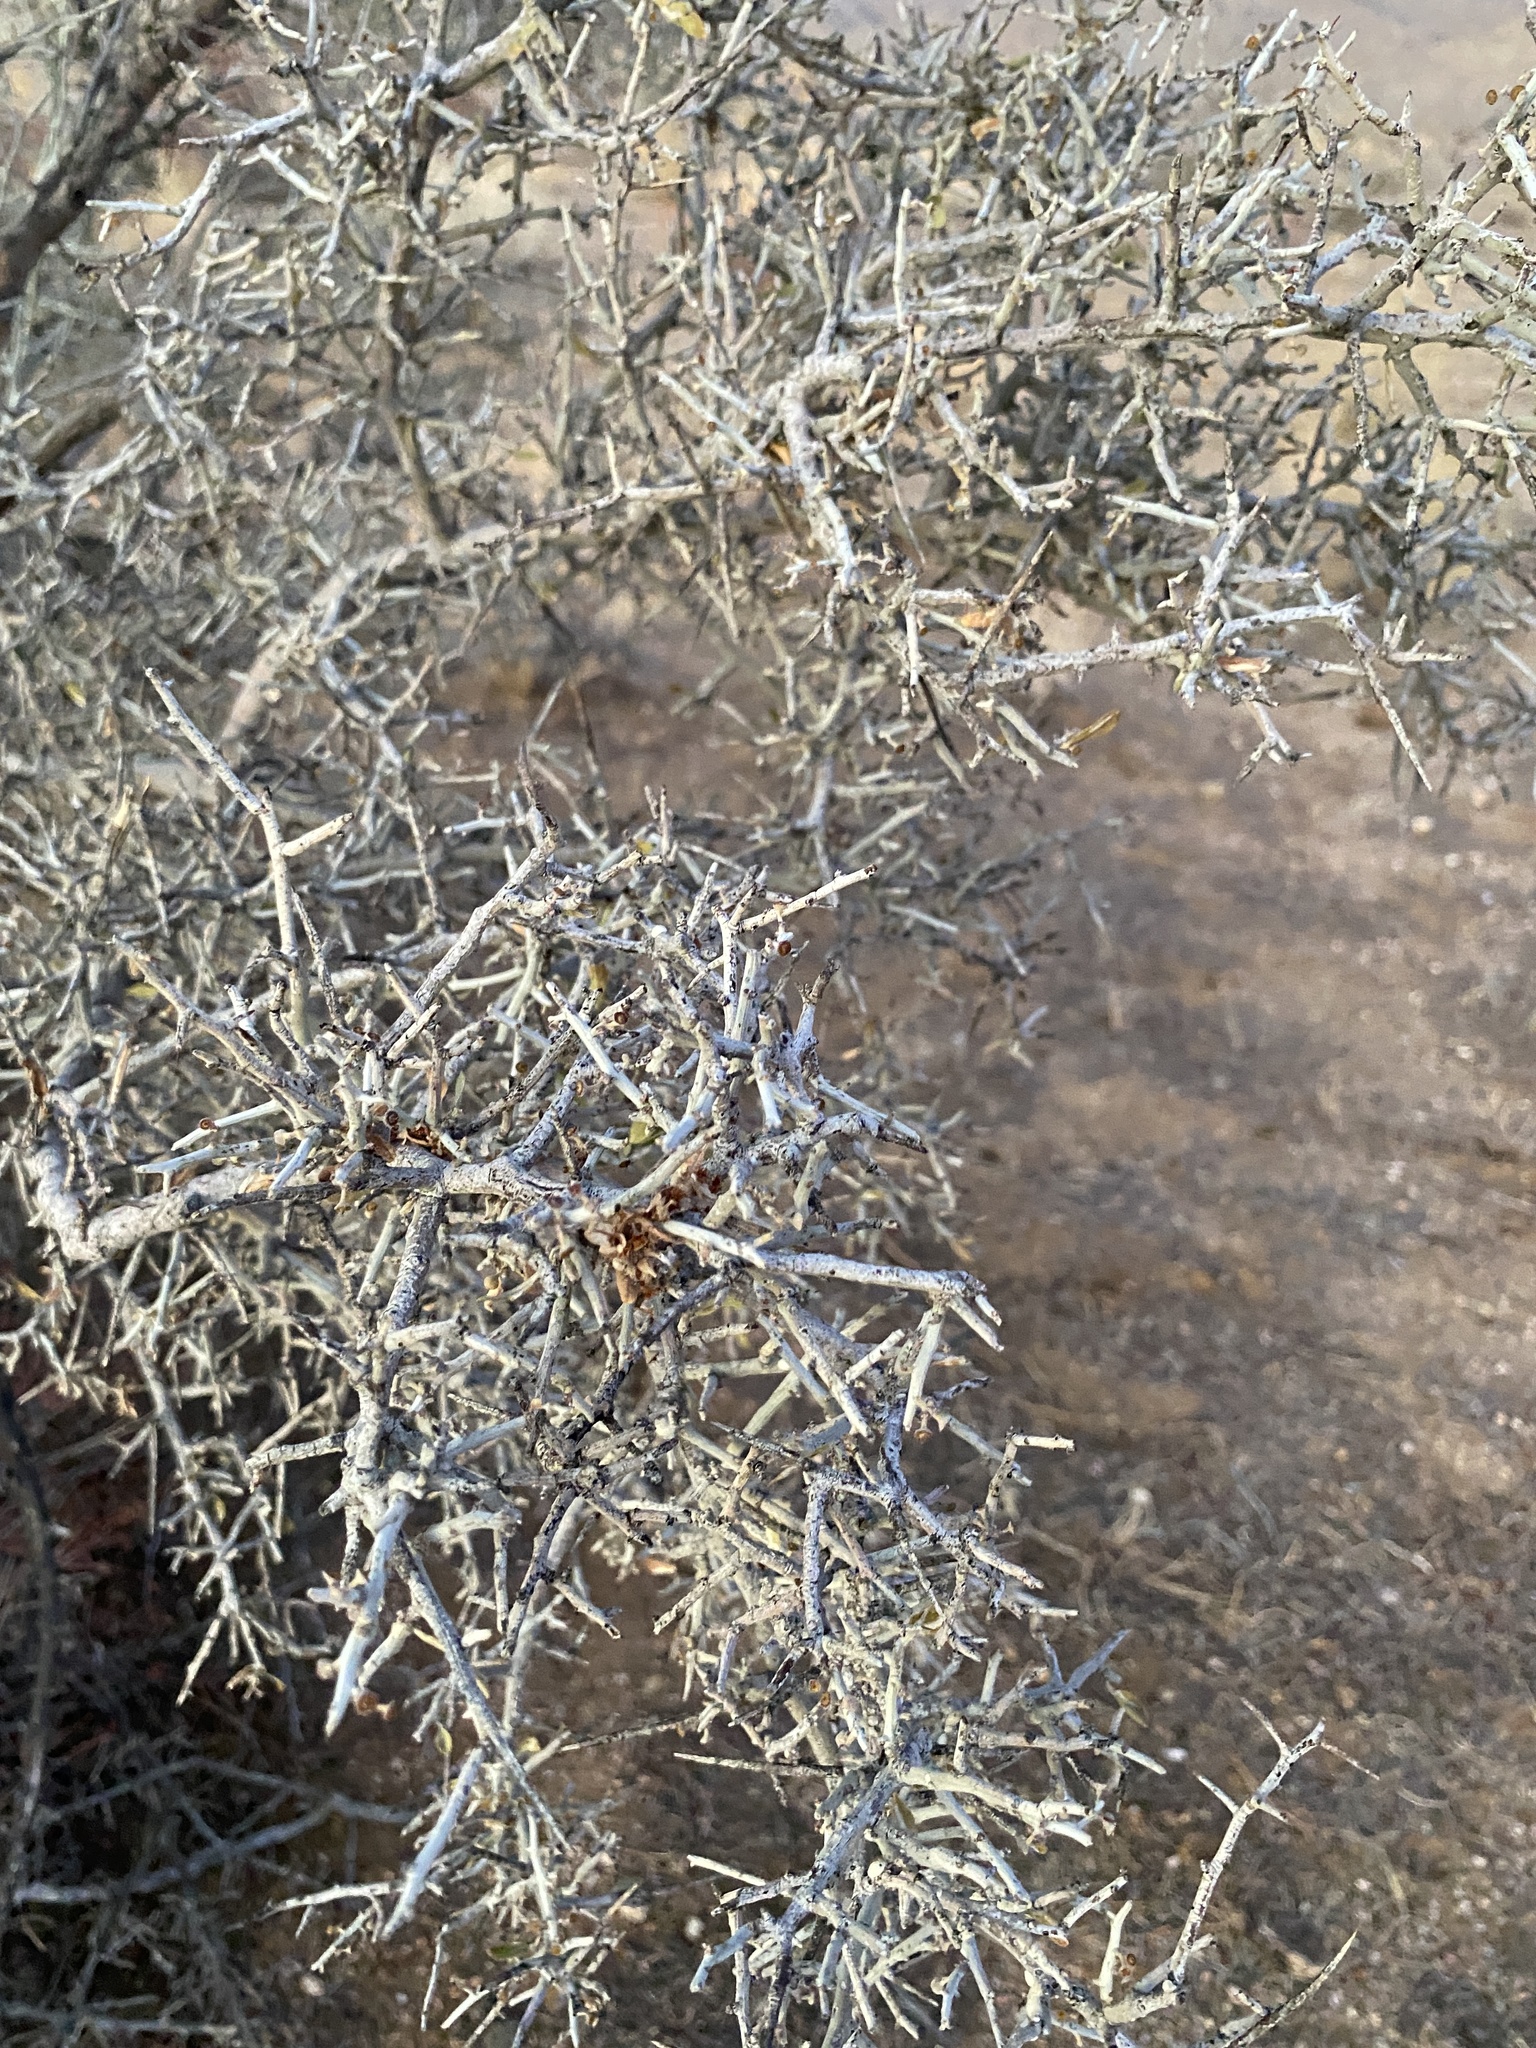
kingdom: Plantae
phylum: Tracheophyta
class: Magnoliopsida
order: Rosales
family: Rhamnaceae
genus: Sarcomphalus
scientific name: Sarcomphalus obtusifolius
